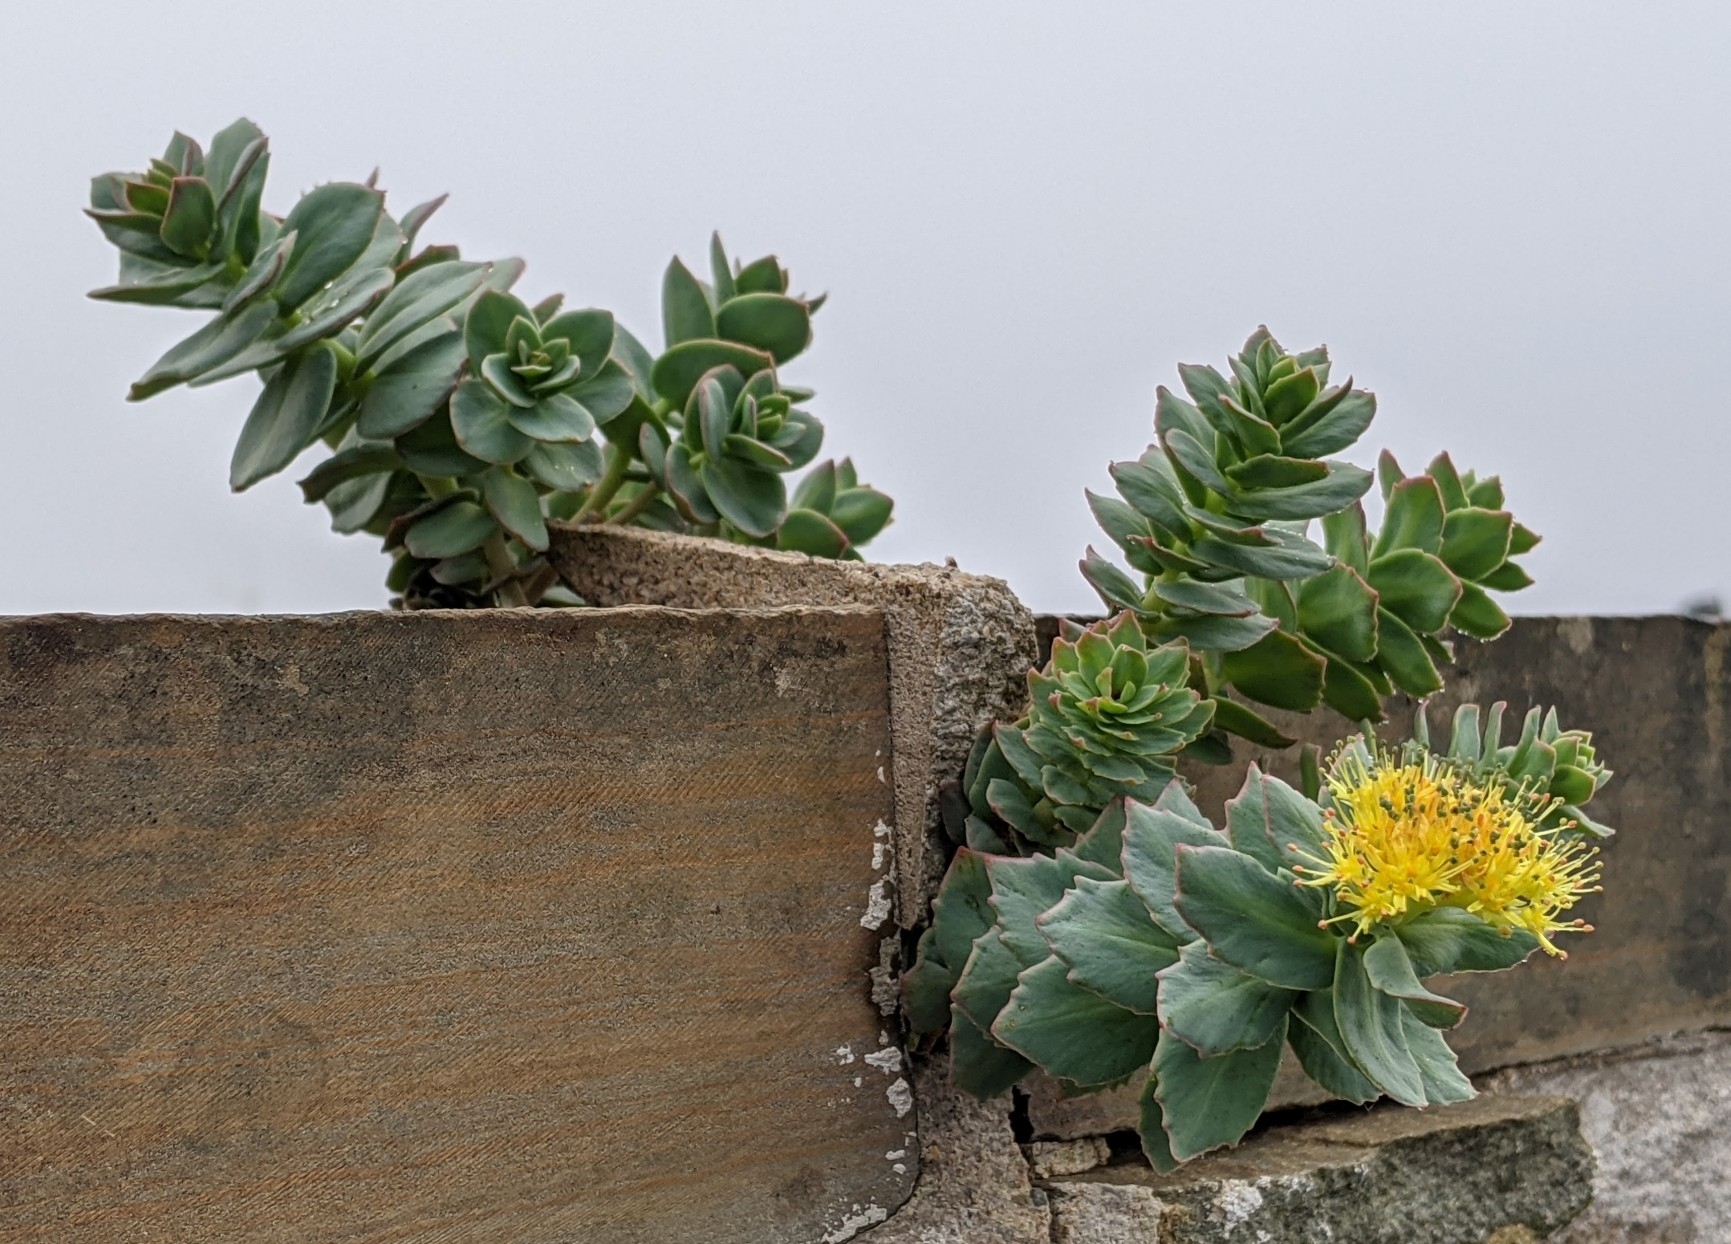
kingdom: Plantae
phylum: Tracheophyta
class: Magnoliopsida
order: Saxifragales
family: Crassulaceae
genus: Rhodiola
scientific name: Rhodiola rosea
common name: Roseroot
